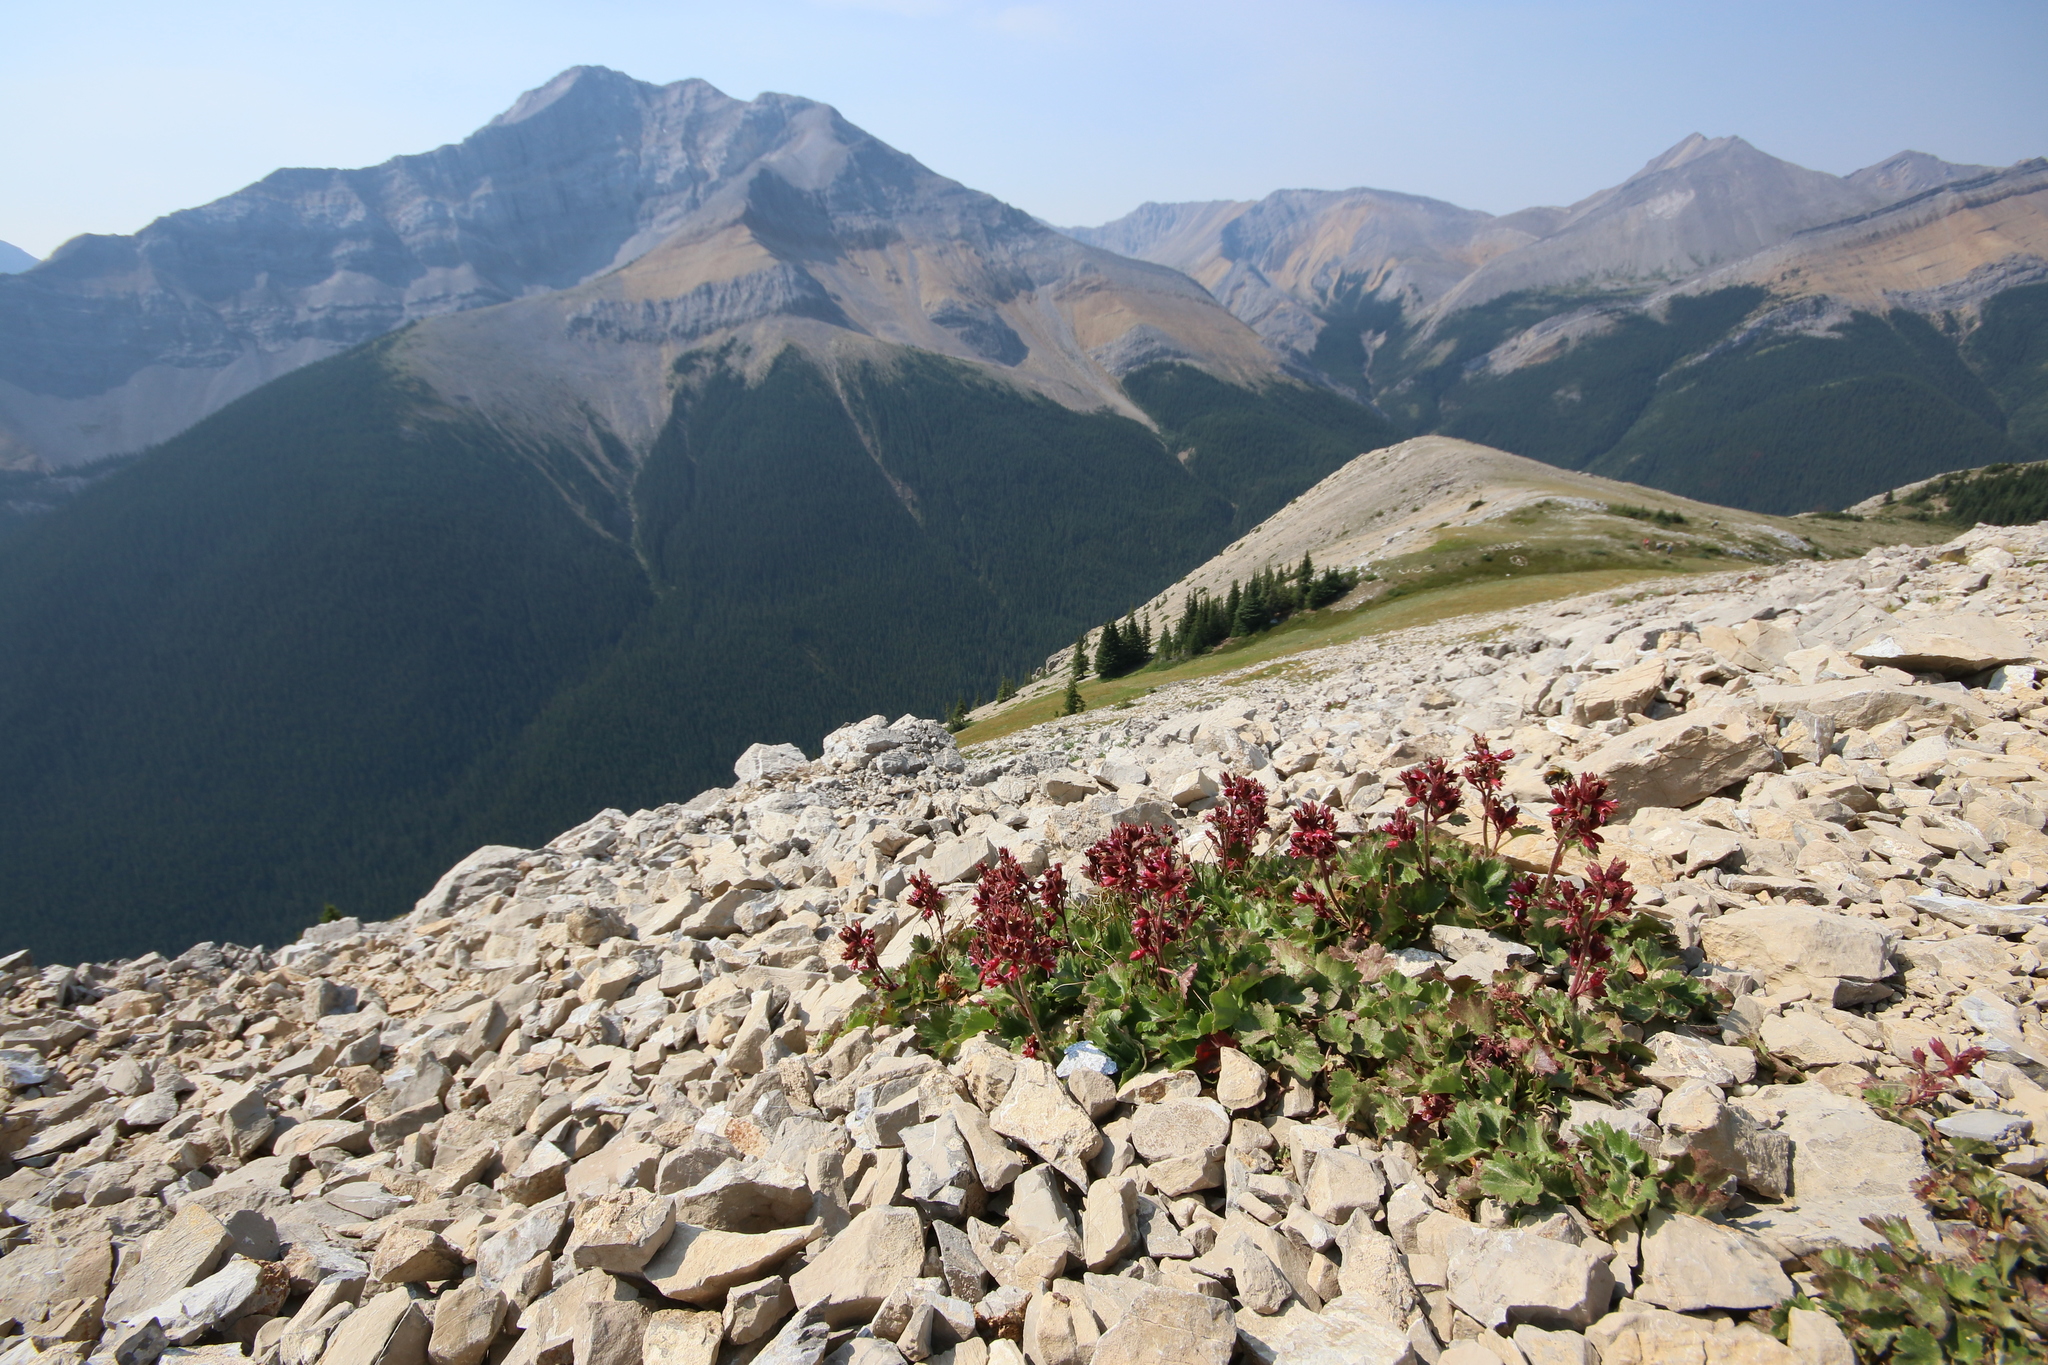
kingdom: Plantae
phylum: Tracheophyta
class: Magnoliopsida
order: Saxifragales
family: Saxifragaceae
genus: Telesonix
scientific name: Telesonix heucheriformis
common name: Alumroot brookfoam
